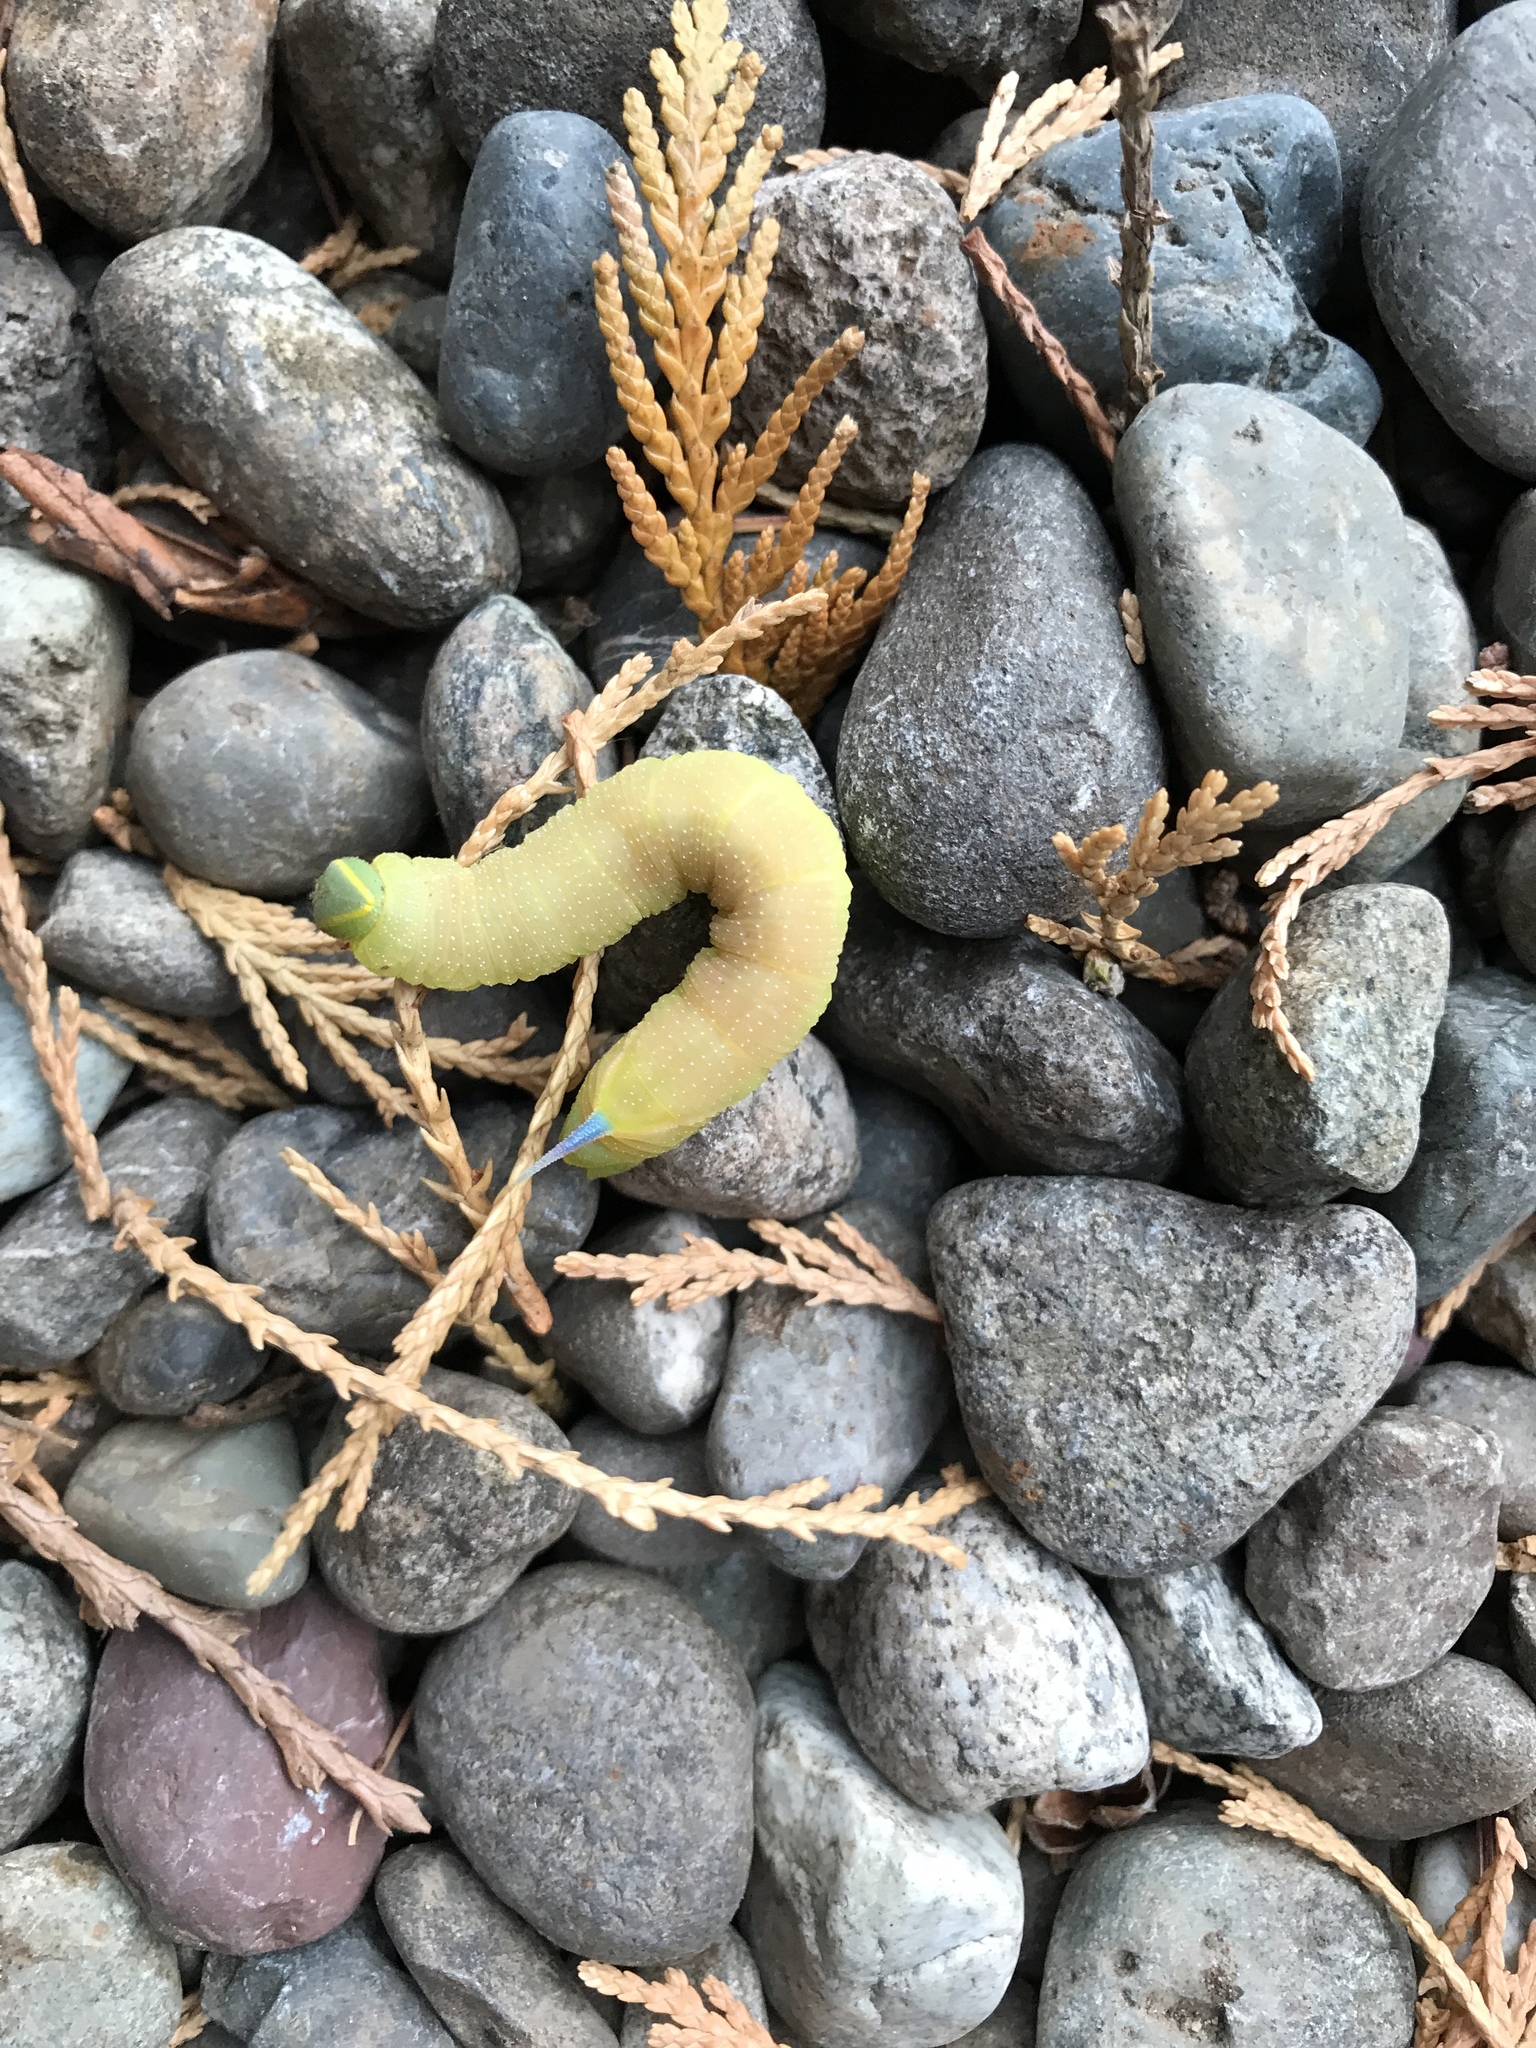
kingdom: Animalia
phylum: Arthropoda
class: Insecta
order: Lepidoptera
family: Sphingidae
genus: Smerinthus
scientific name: Smerinthus cerisyi
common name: Cerisy's sphinx moth
